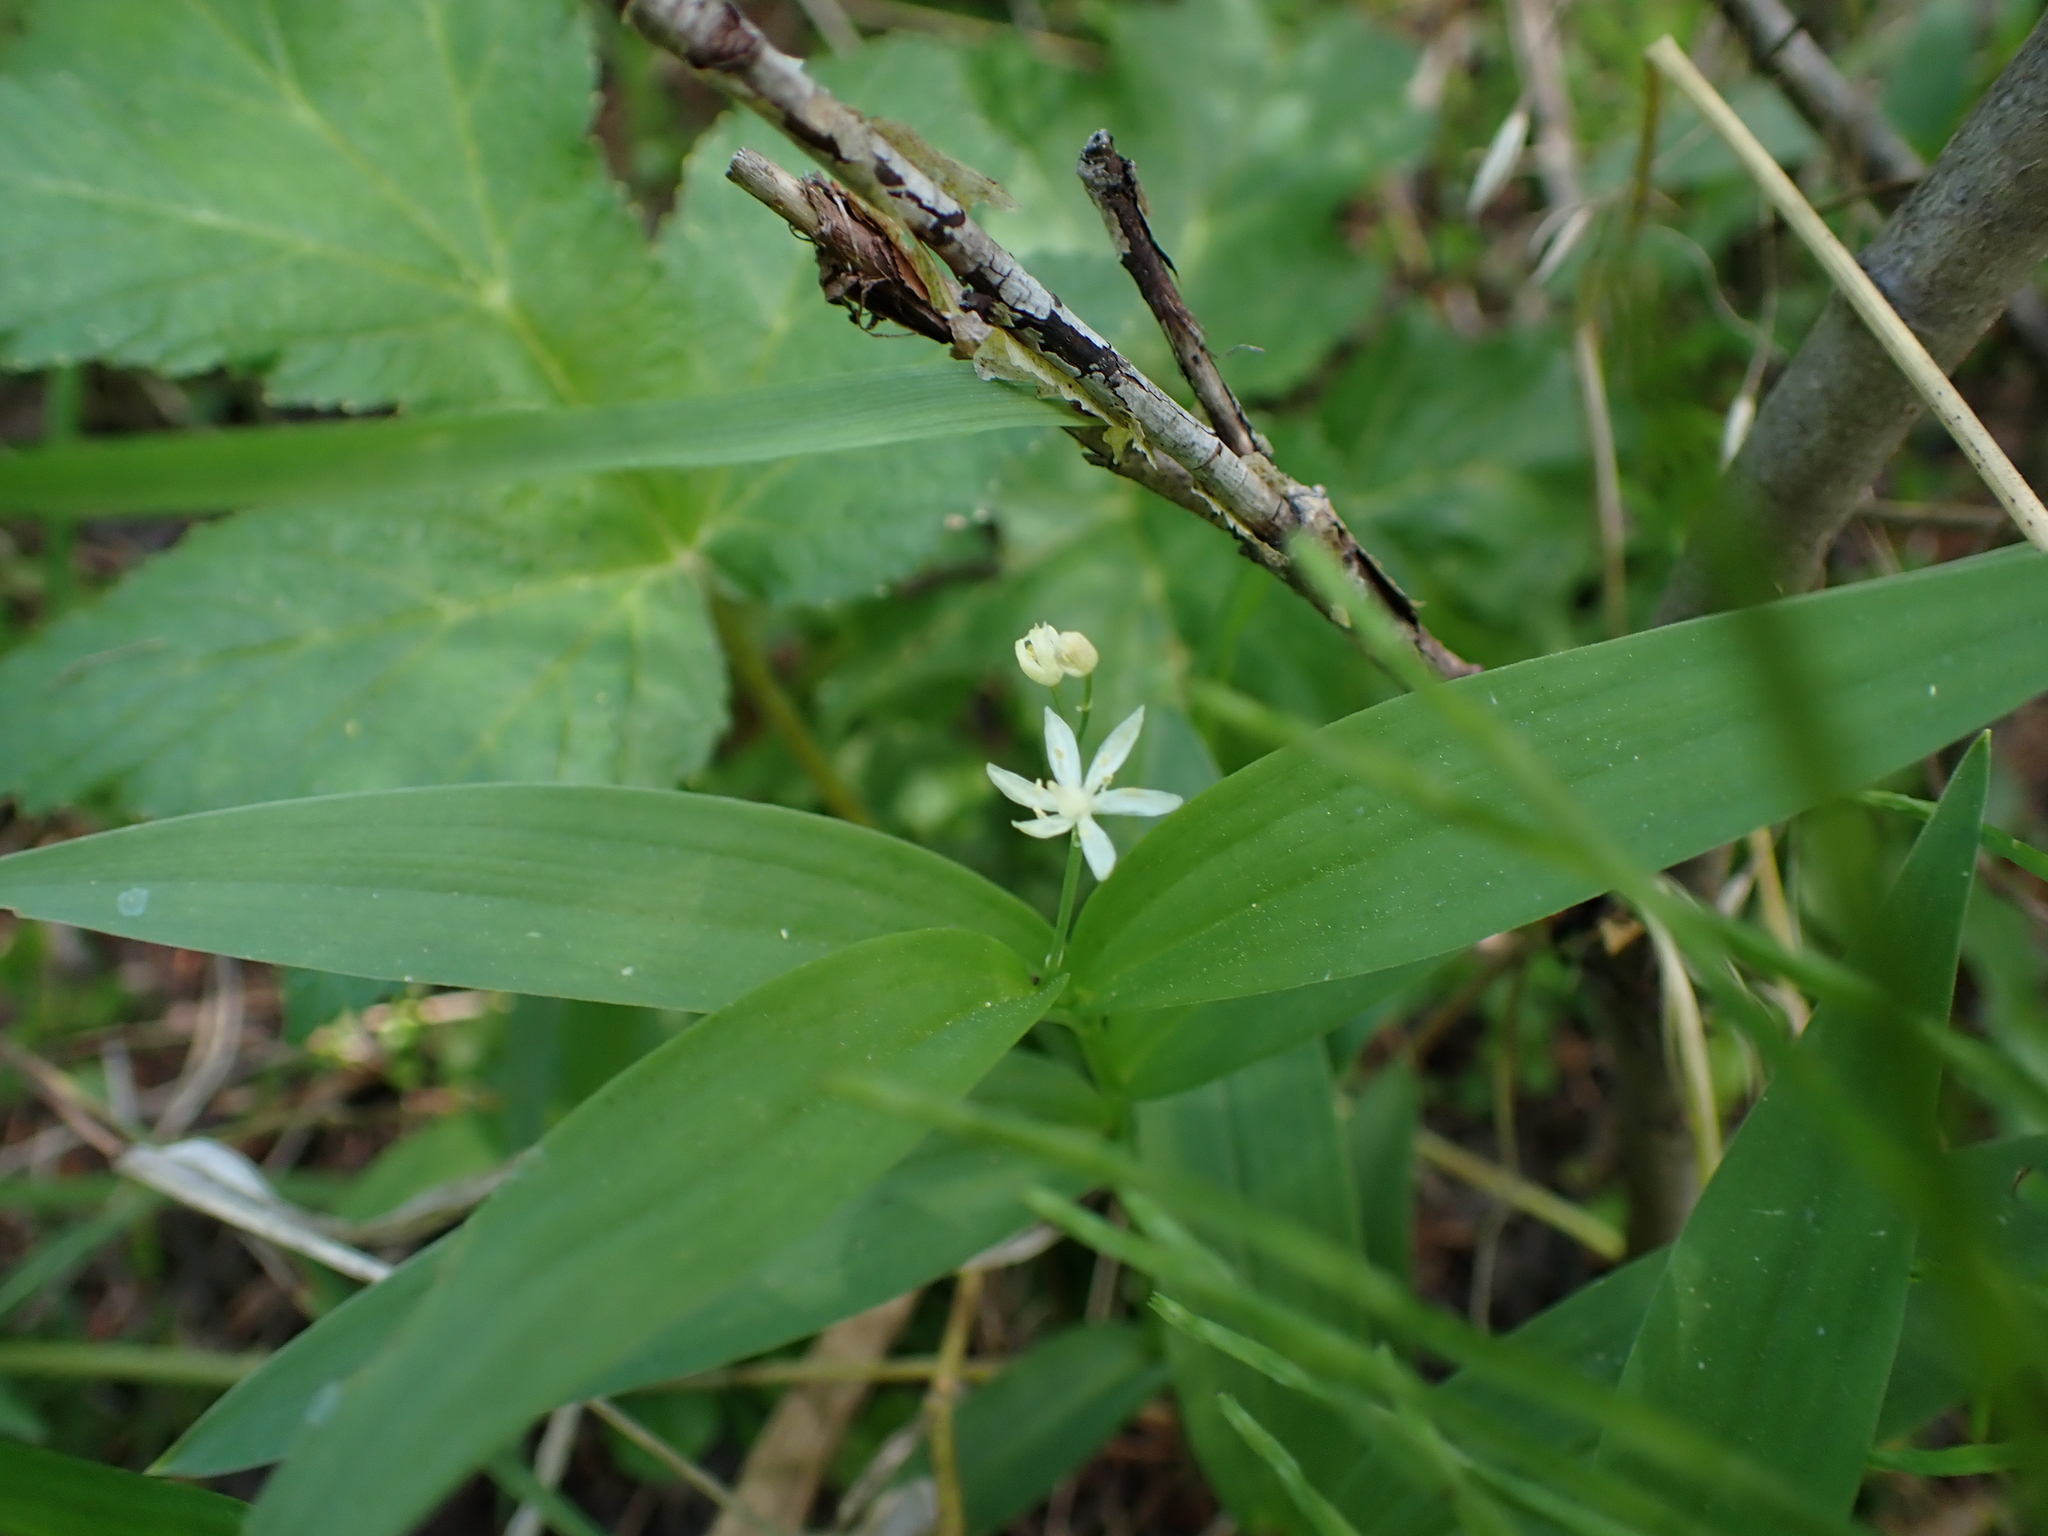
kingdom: Plantae
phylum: Tracheophyta
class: Liliopsida
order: Asparagales
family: Asparagaceae
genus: Maianthemum
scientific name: Maianthemum stellatum
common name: Little false solomon's seal
